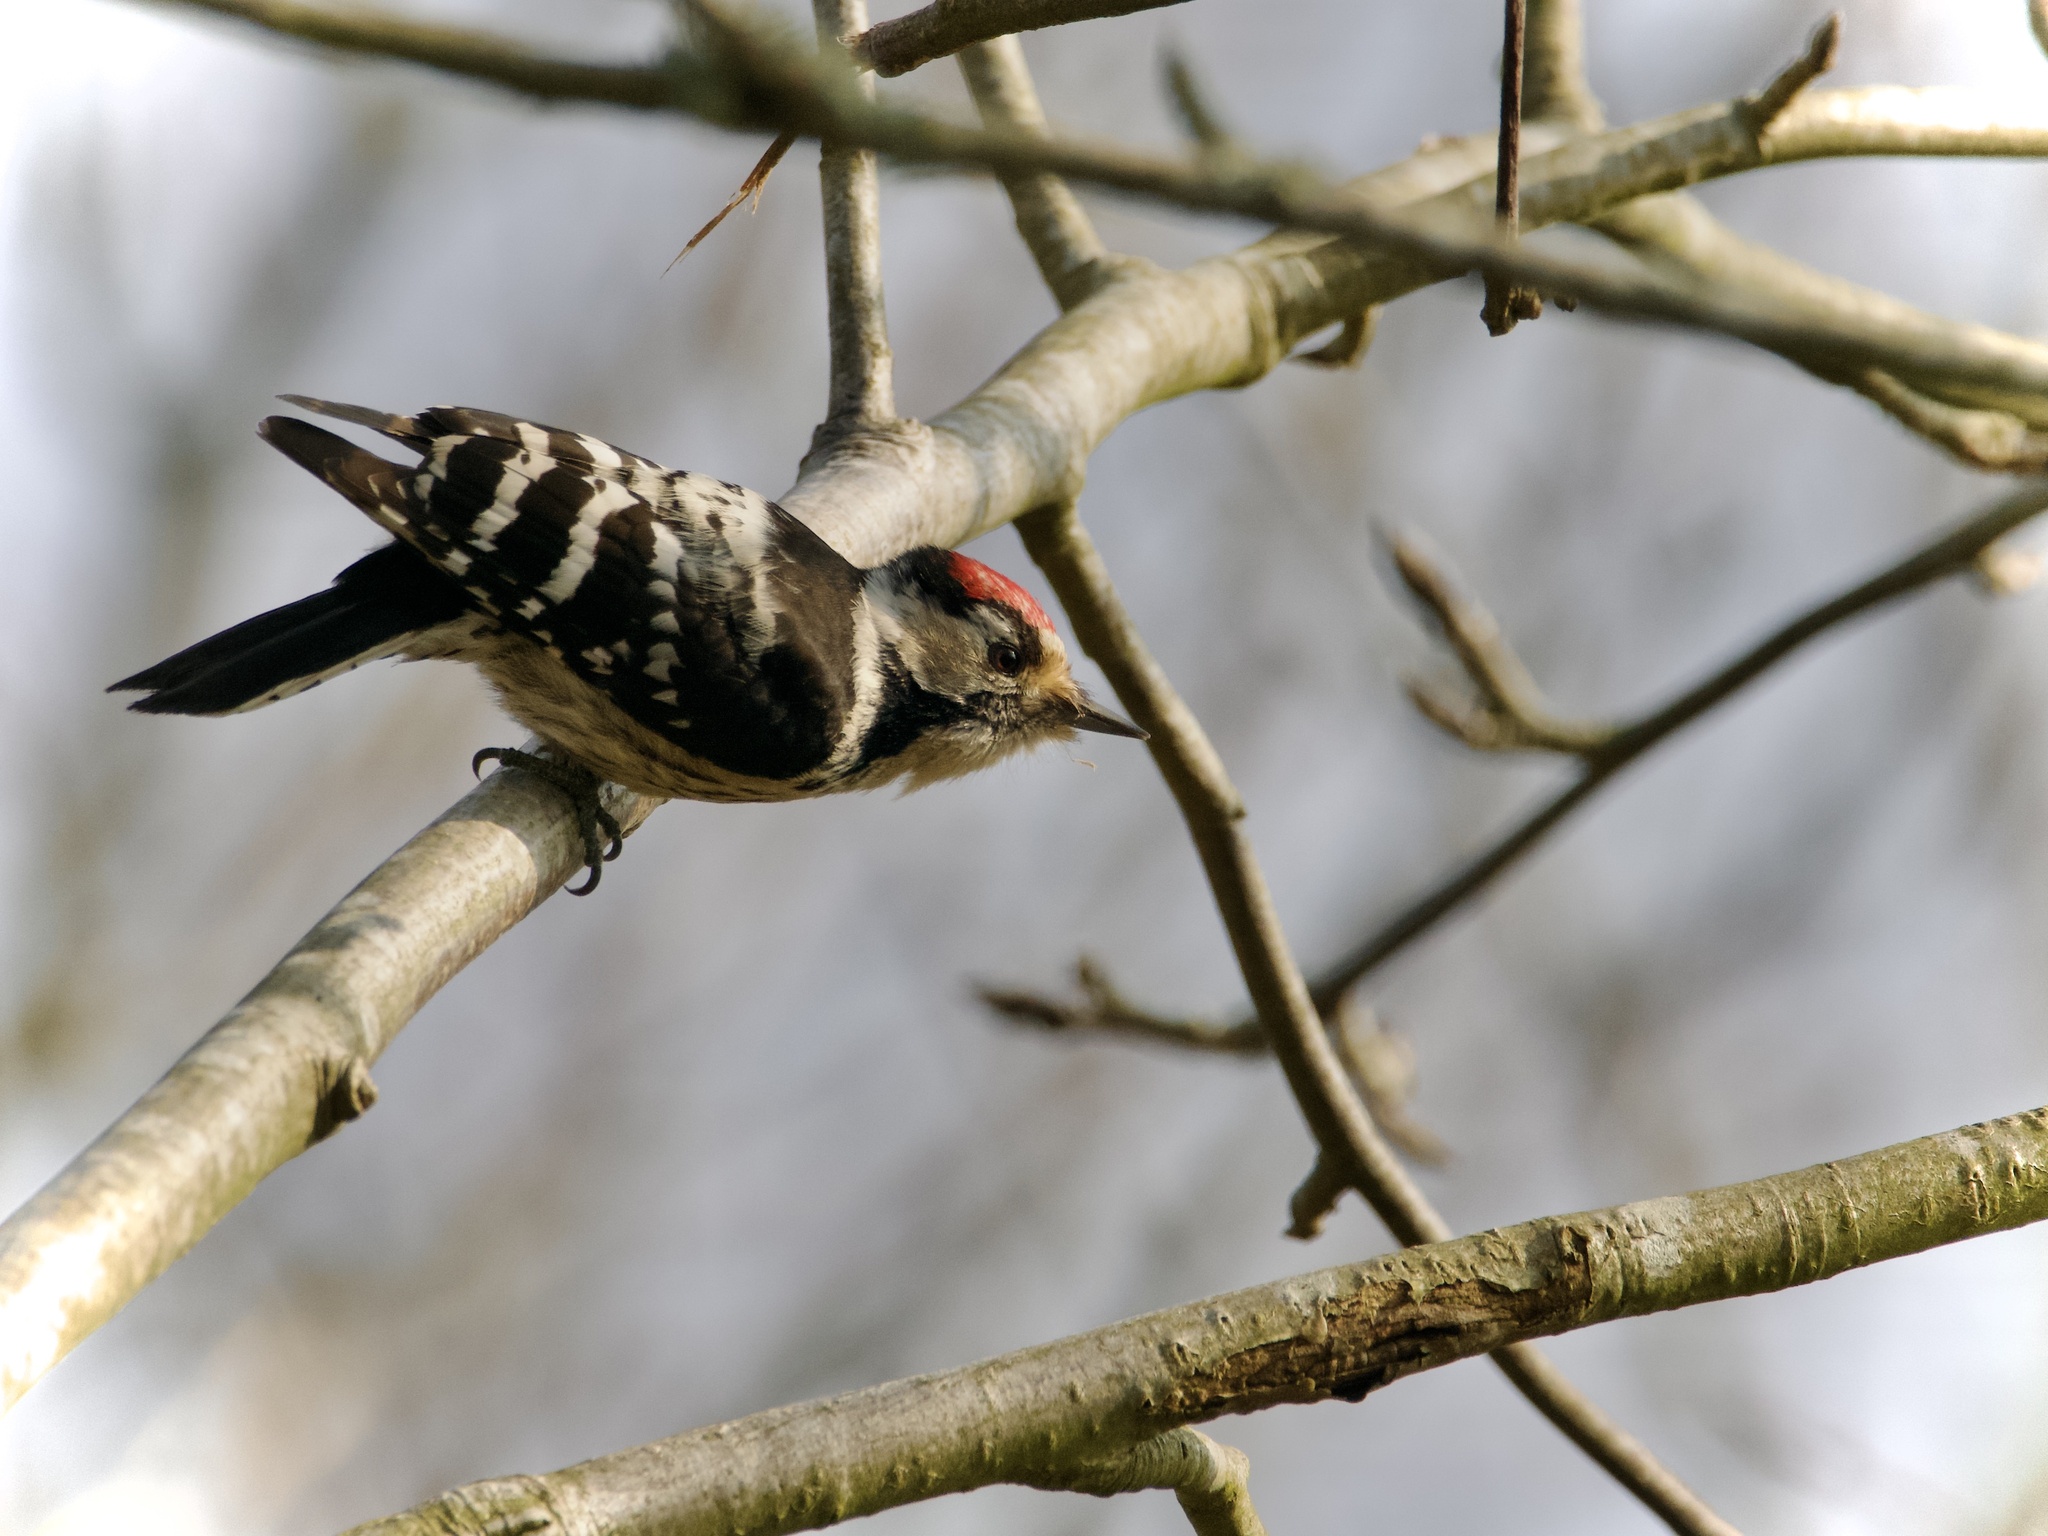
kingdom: Animalia
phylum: Chordata
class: Aves
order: Piciformes
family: Picidae
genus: Dryobates
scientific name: Dryobates minor
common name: Lesser spotted woodpecker
